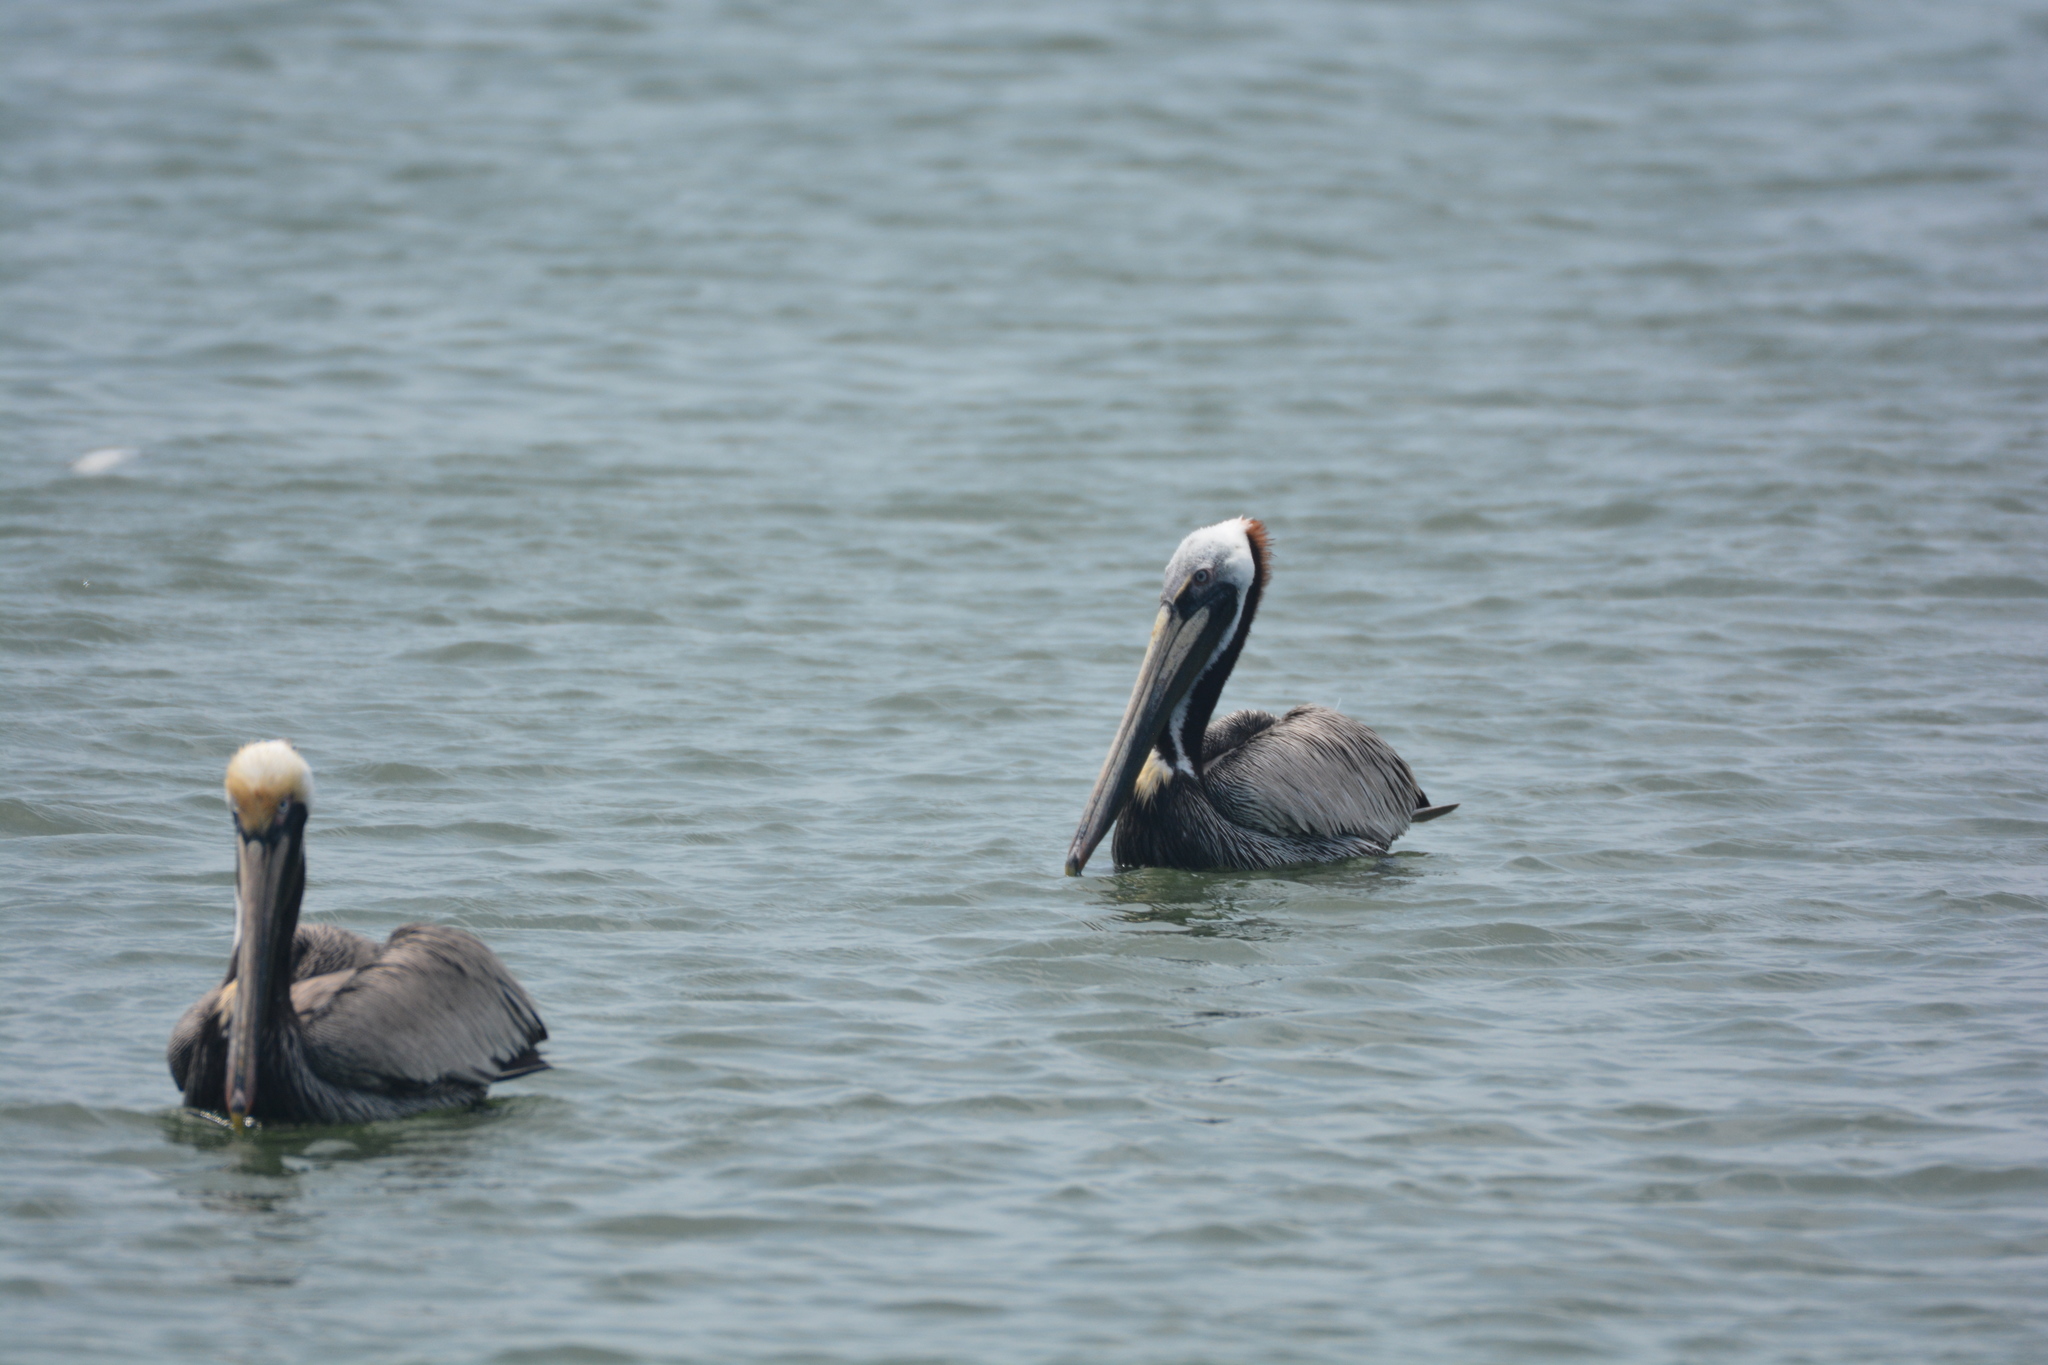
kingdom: Animalia
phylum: Chordata
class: Aves
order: Pelecaniformes
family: Pelecanidae
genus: Pelecanus
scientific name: Pelecanus occidentalis
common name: Brown pelican
